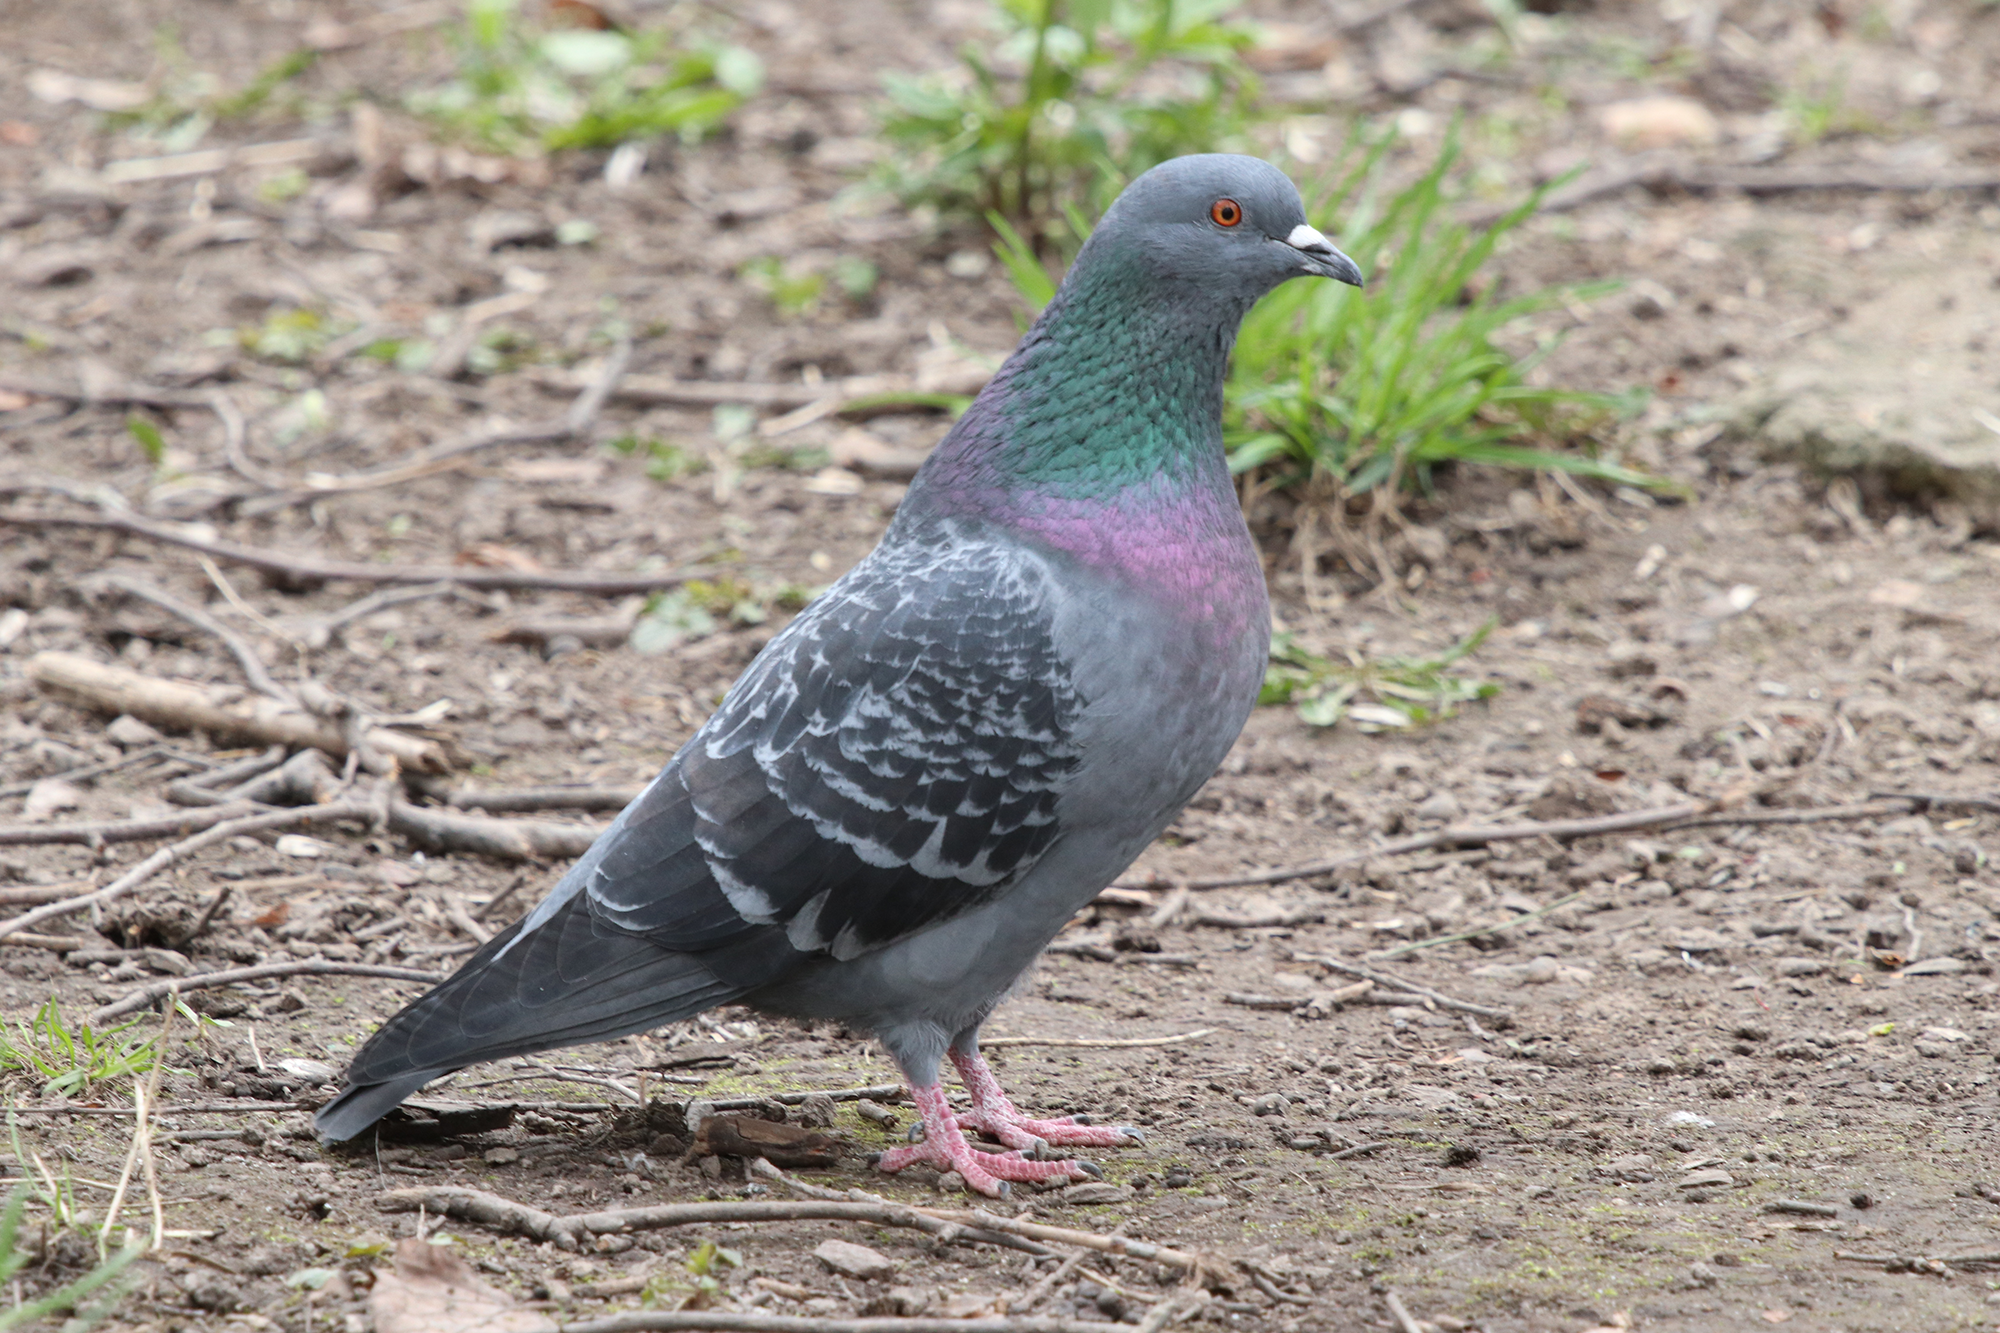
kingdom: Animalia
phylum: Chordata
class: Aves
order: Columbiformes
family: Columbidae
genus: Columba
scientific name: Columba livia
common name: Rock pigeon
